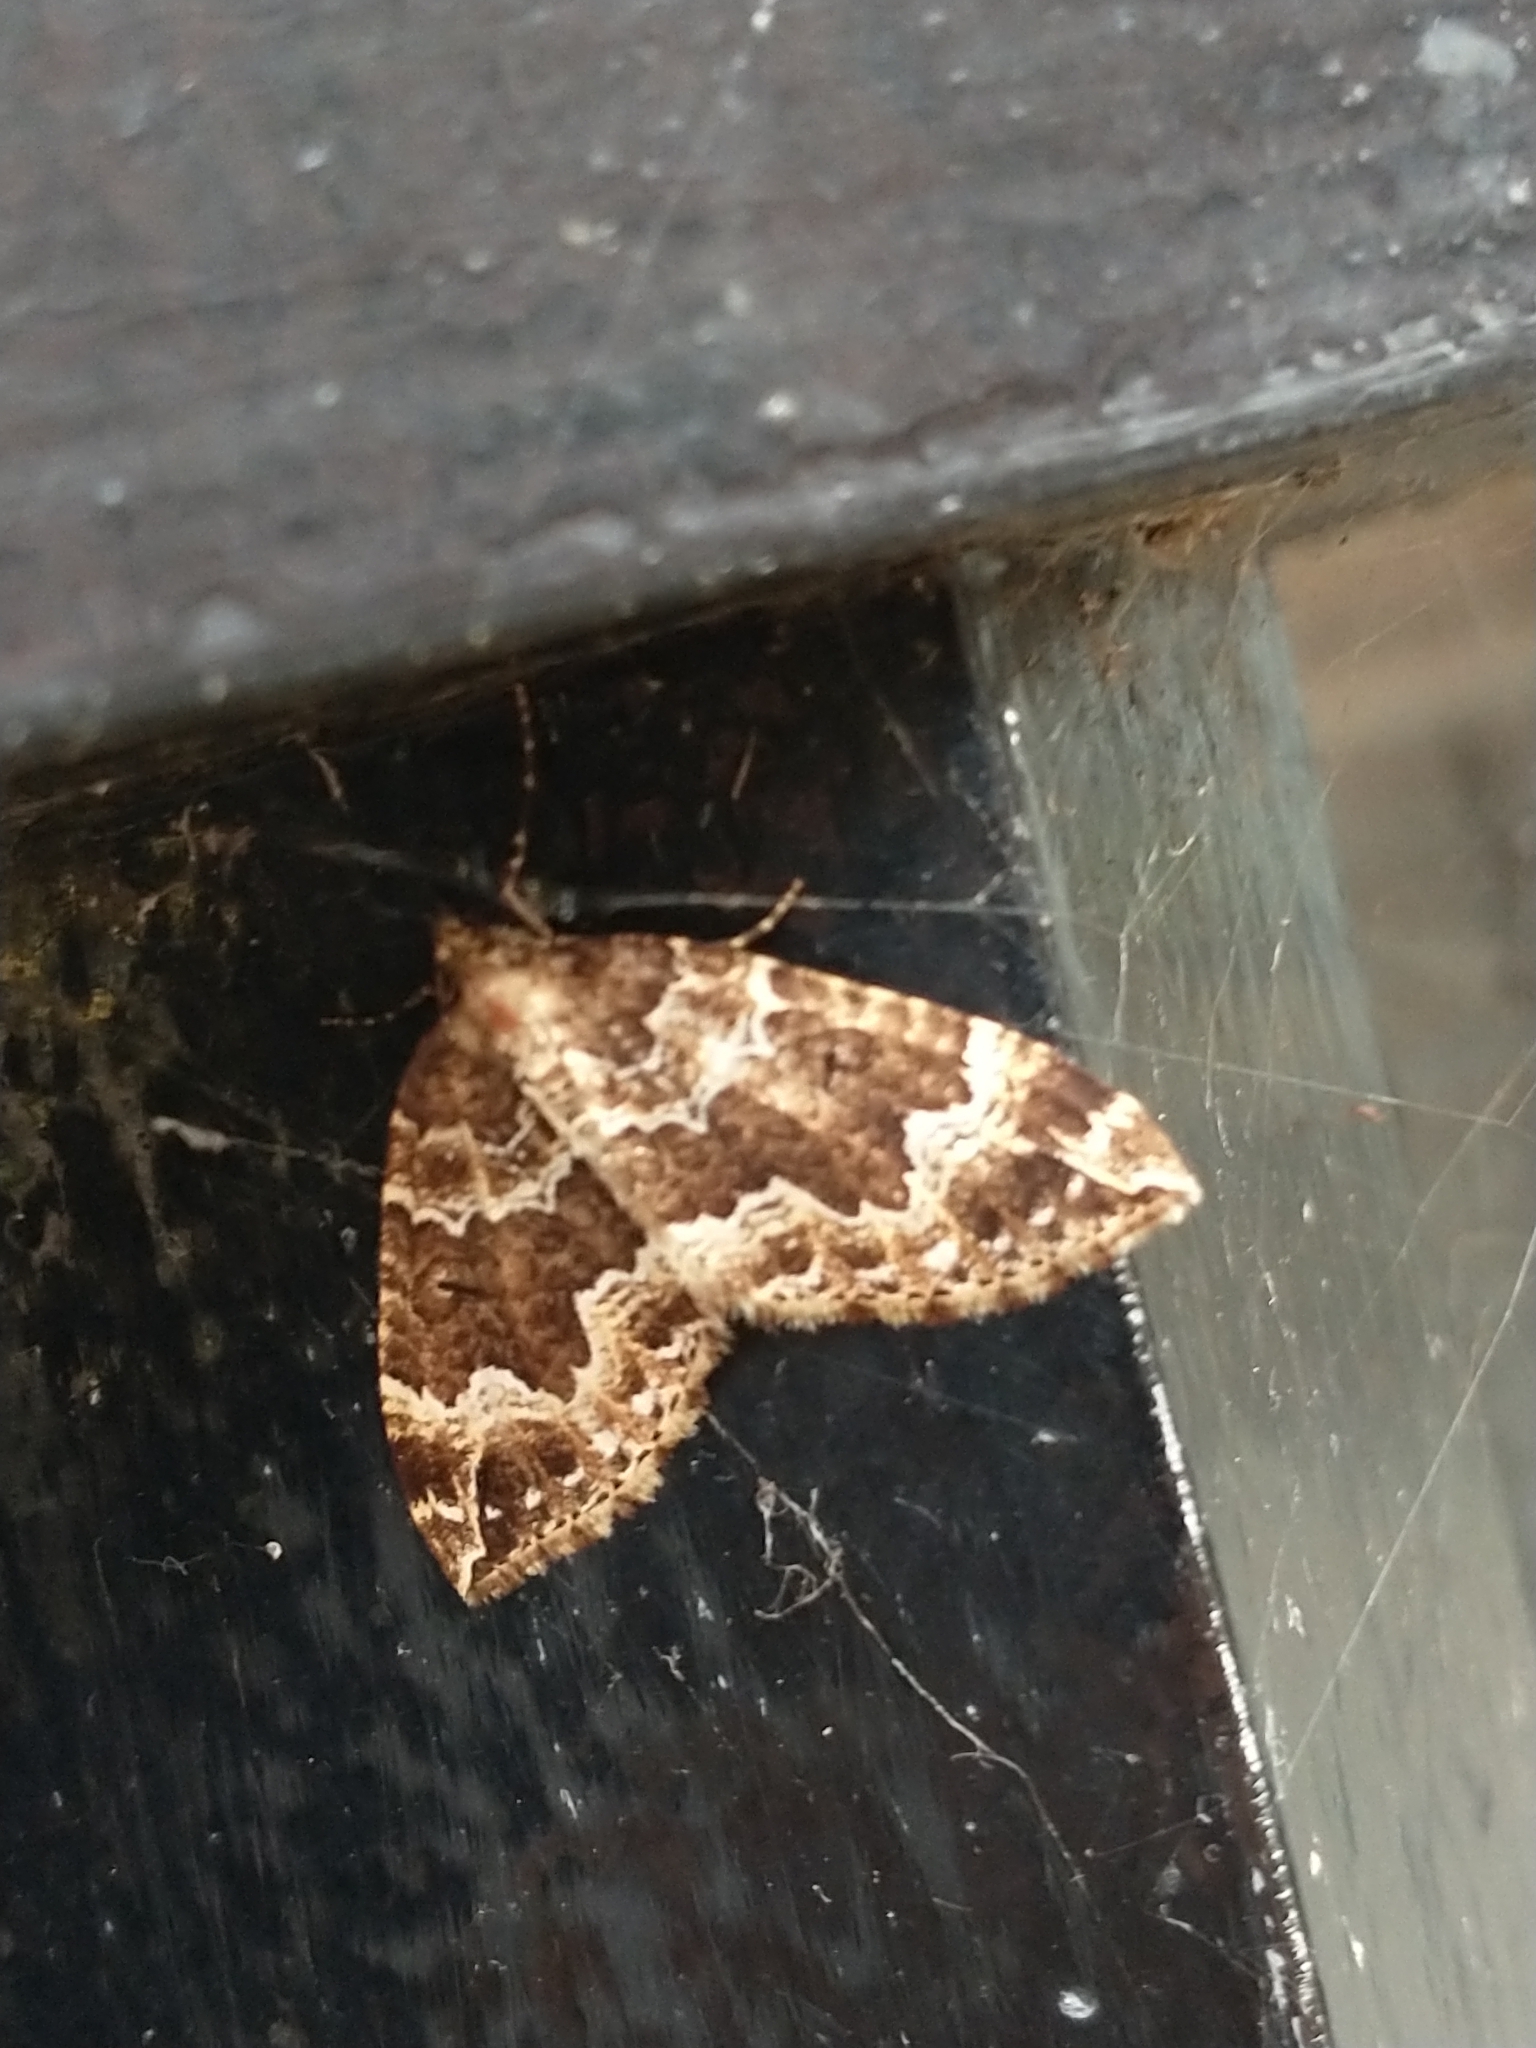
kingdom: Animalia
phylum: Arthropoda
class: Insecta
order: Lepidoptera
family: Geometridae
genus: Lampropteryx
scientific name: Lampropteryx suffumata
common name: Water carpet
